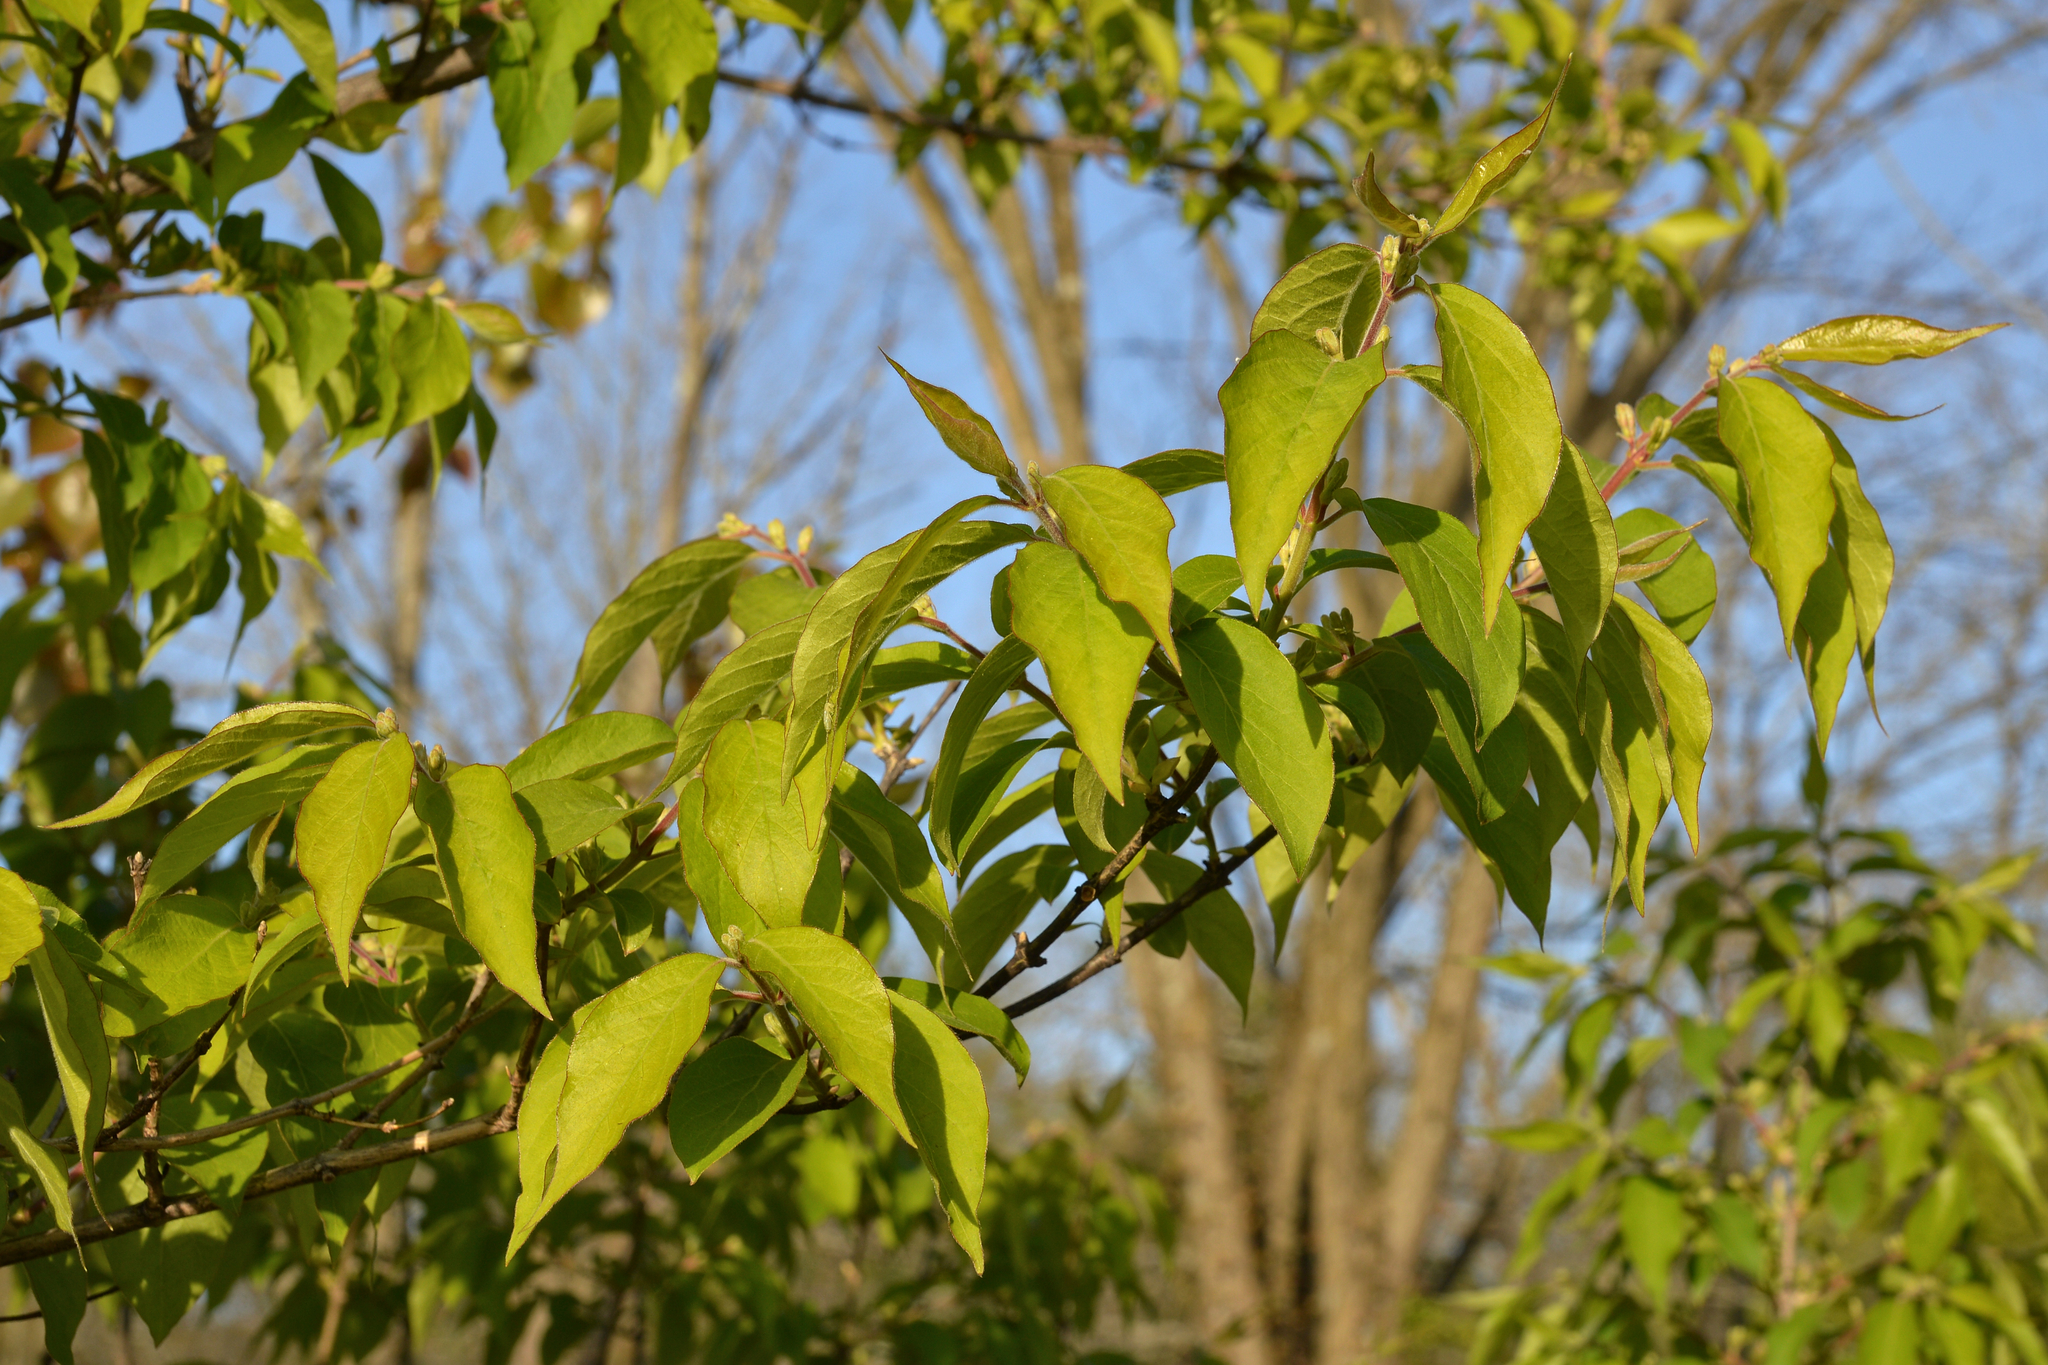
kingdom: Plantae
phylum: Tracheophyta
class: Magnoliopsida
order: Dipsacales
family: Caprifoliaceae
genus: Lonicera
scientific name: Lonicera maackii
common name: Amur honeysuckle
